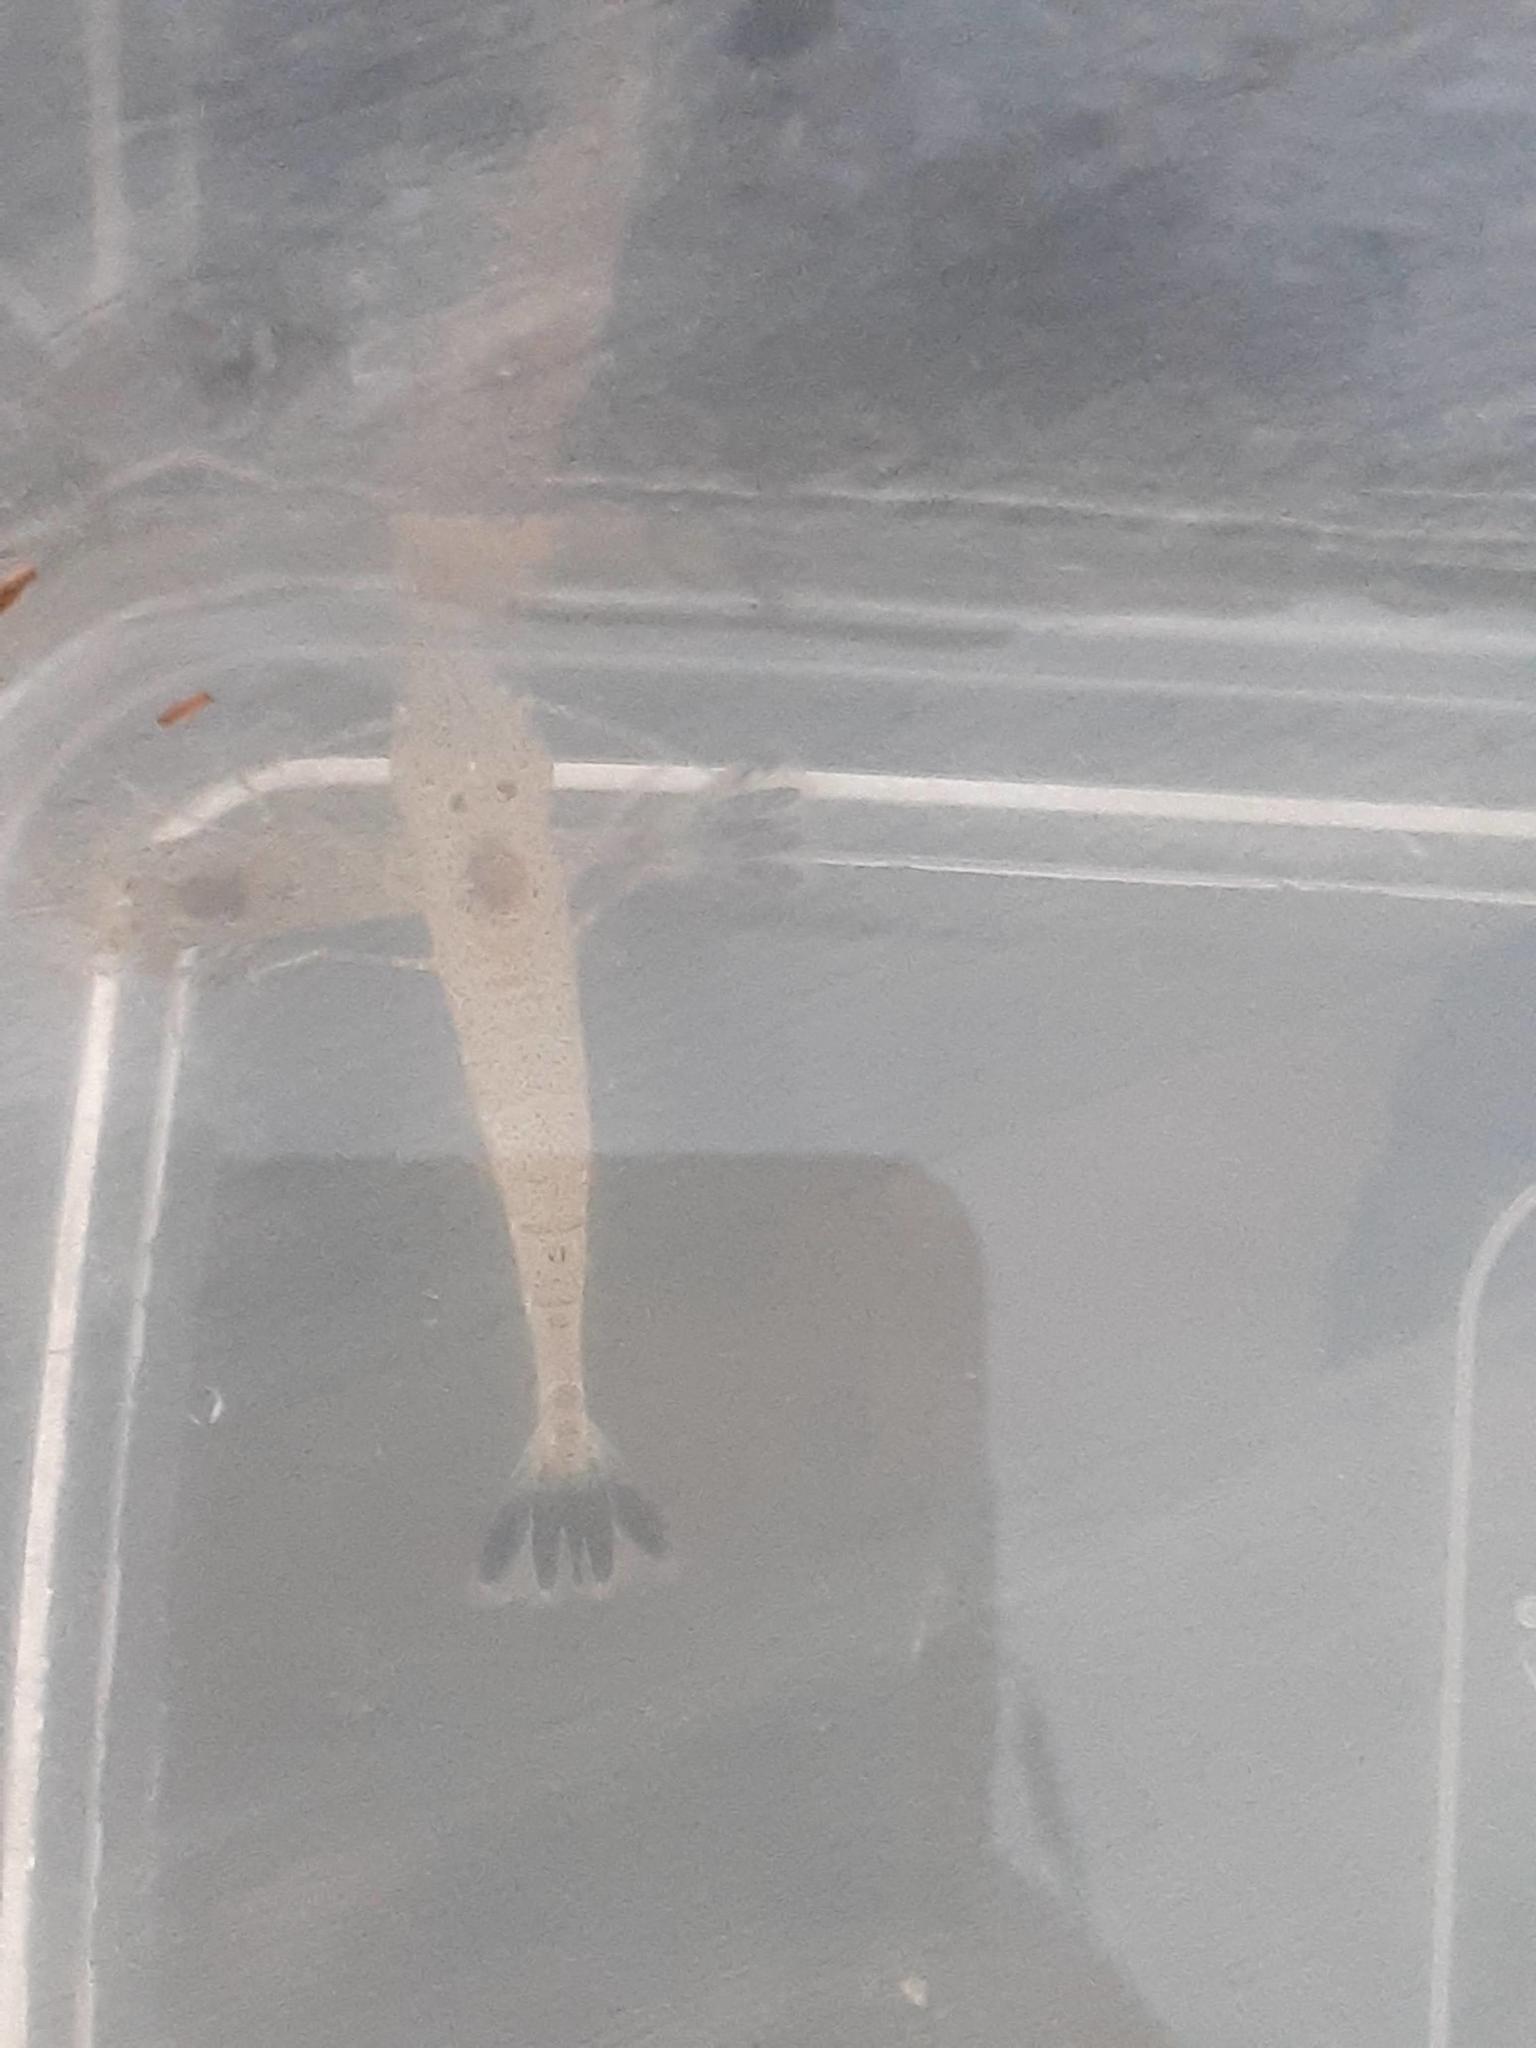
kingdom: Animalia
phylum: Arthropoda
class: Malacostraca
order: Decapoda
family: Crangonidae
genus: Crangon
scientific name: Crangon septemspinosa
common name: Bail shrimp
